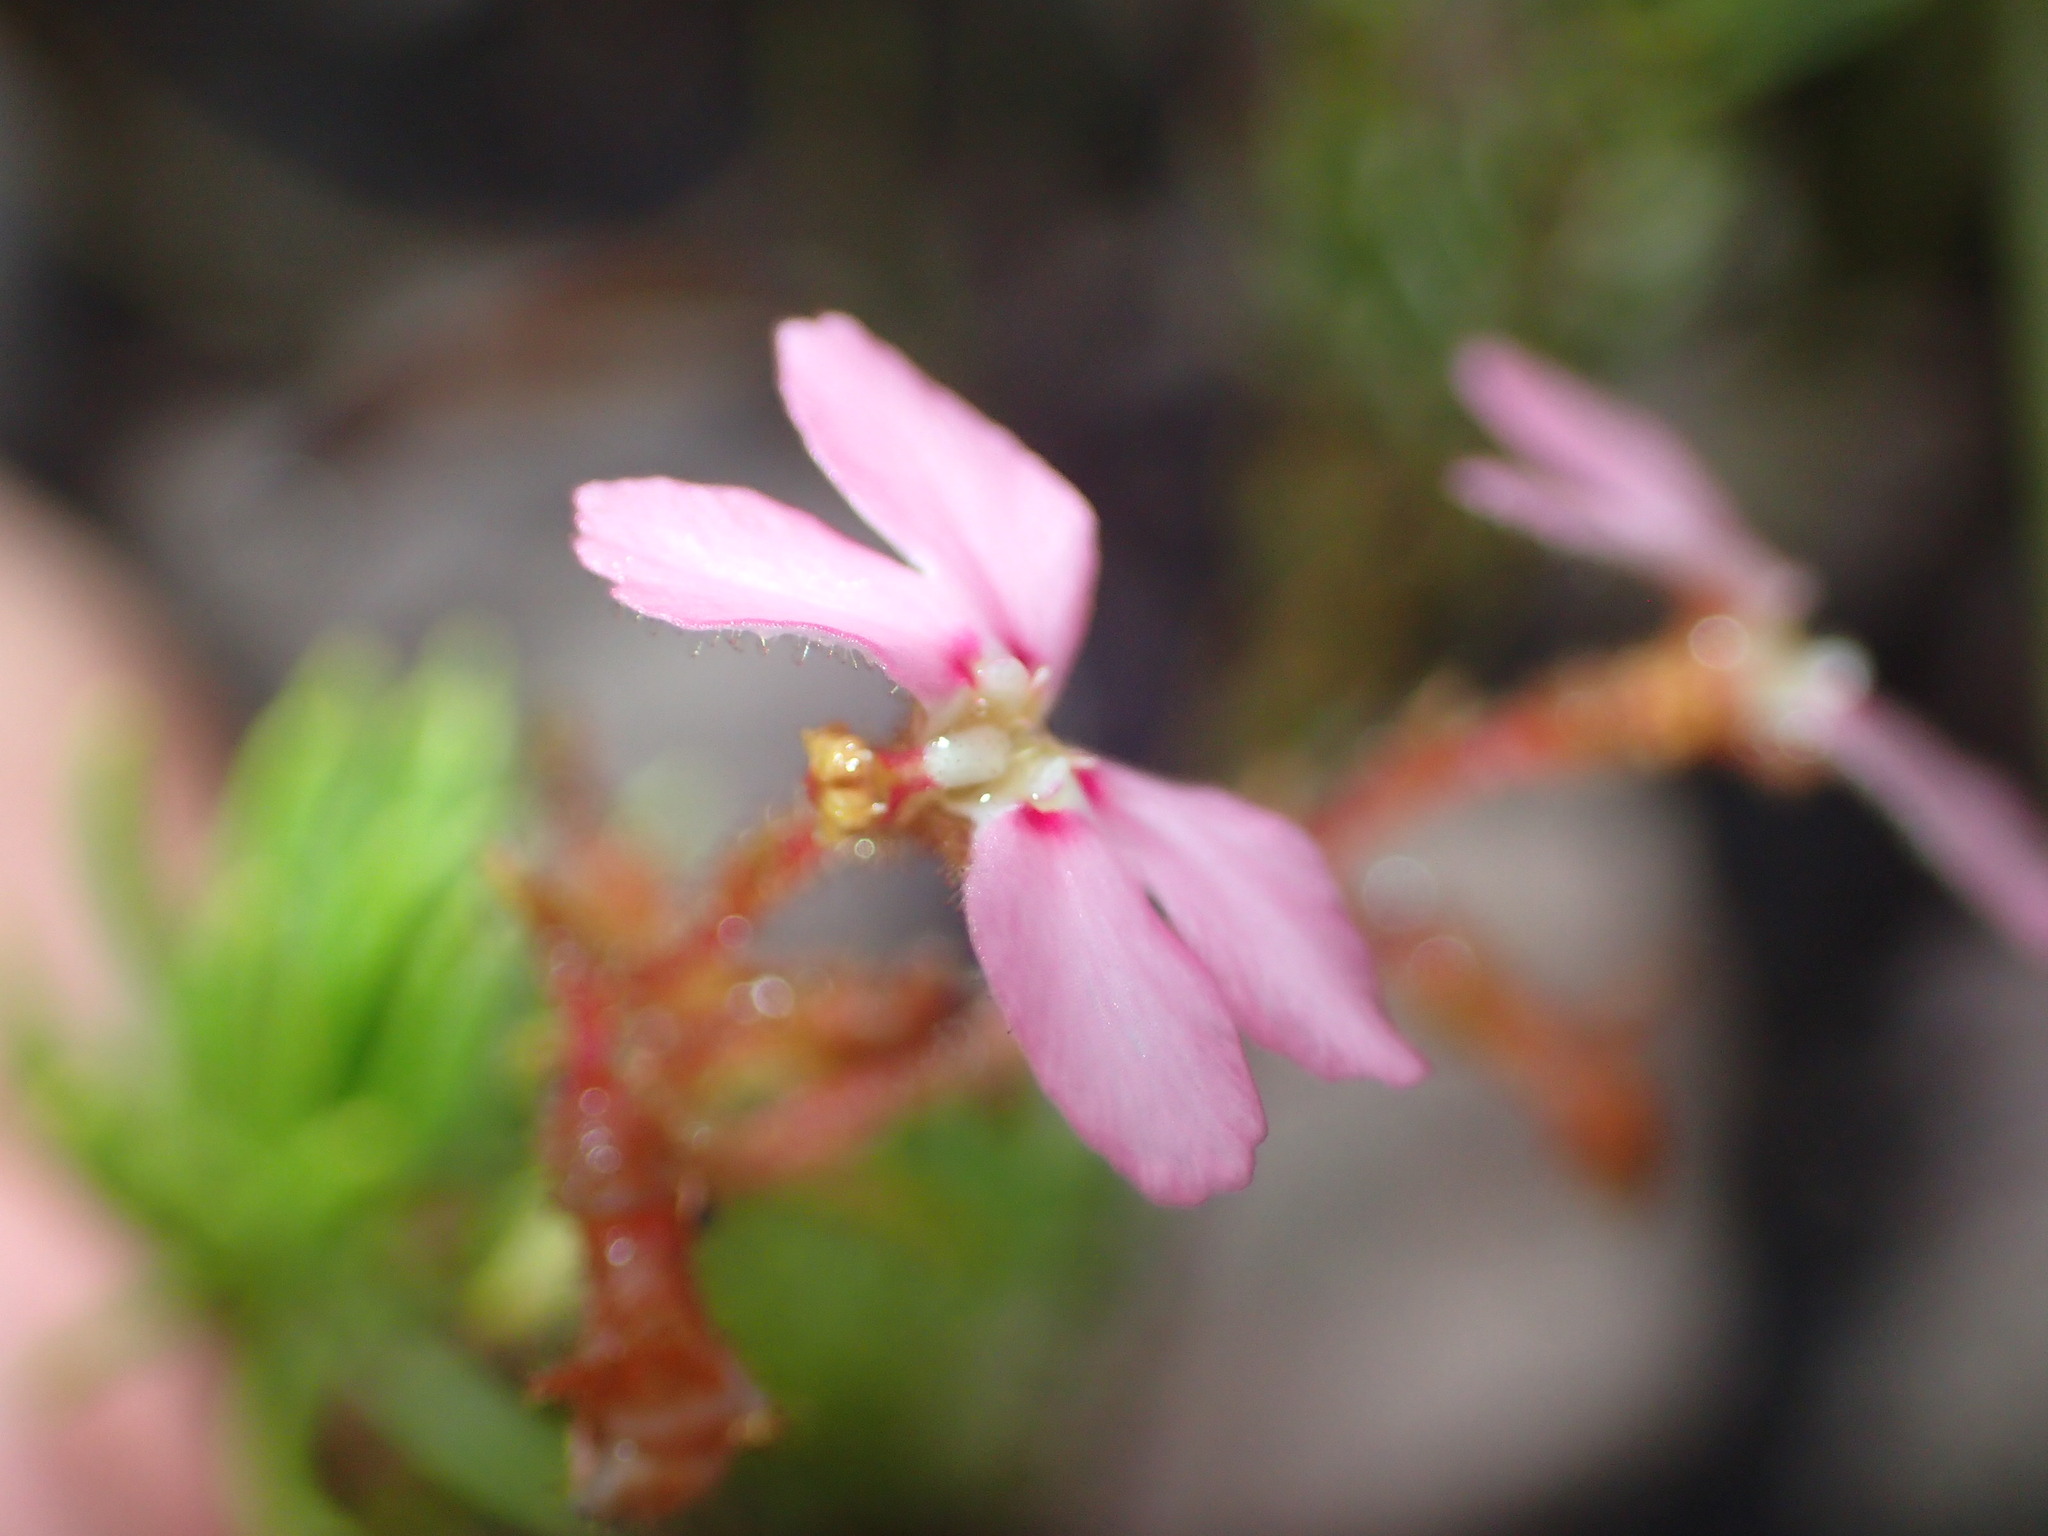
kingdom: Plantae
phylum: Tracheophyta
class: Magnoliopsida
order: Asterales
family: Stylidiaceae
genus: Stylidium
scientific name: Stylidium verticillatum
